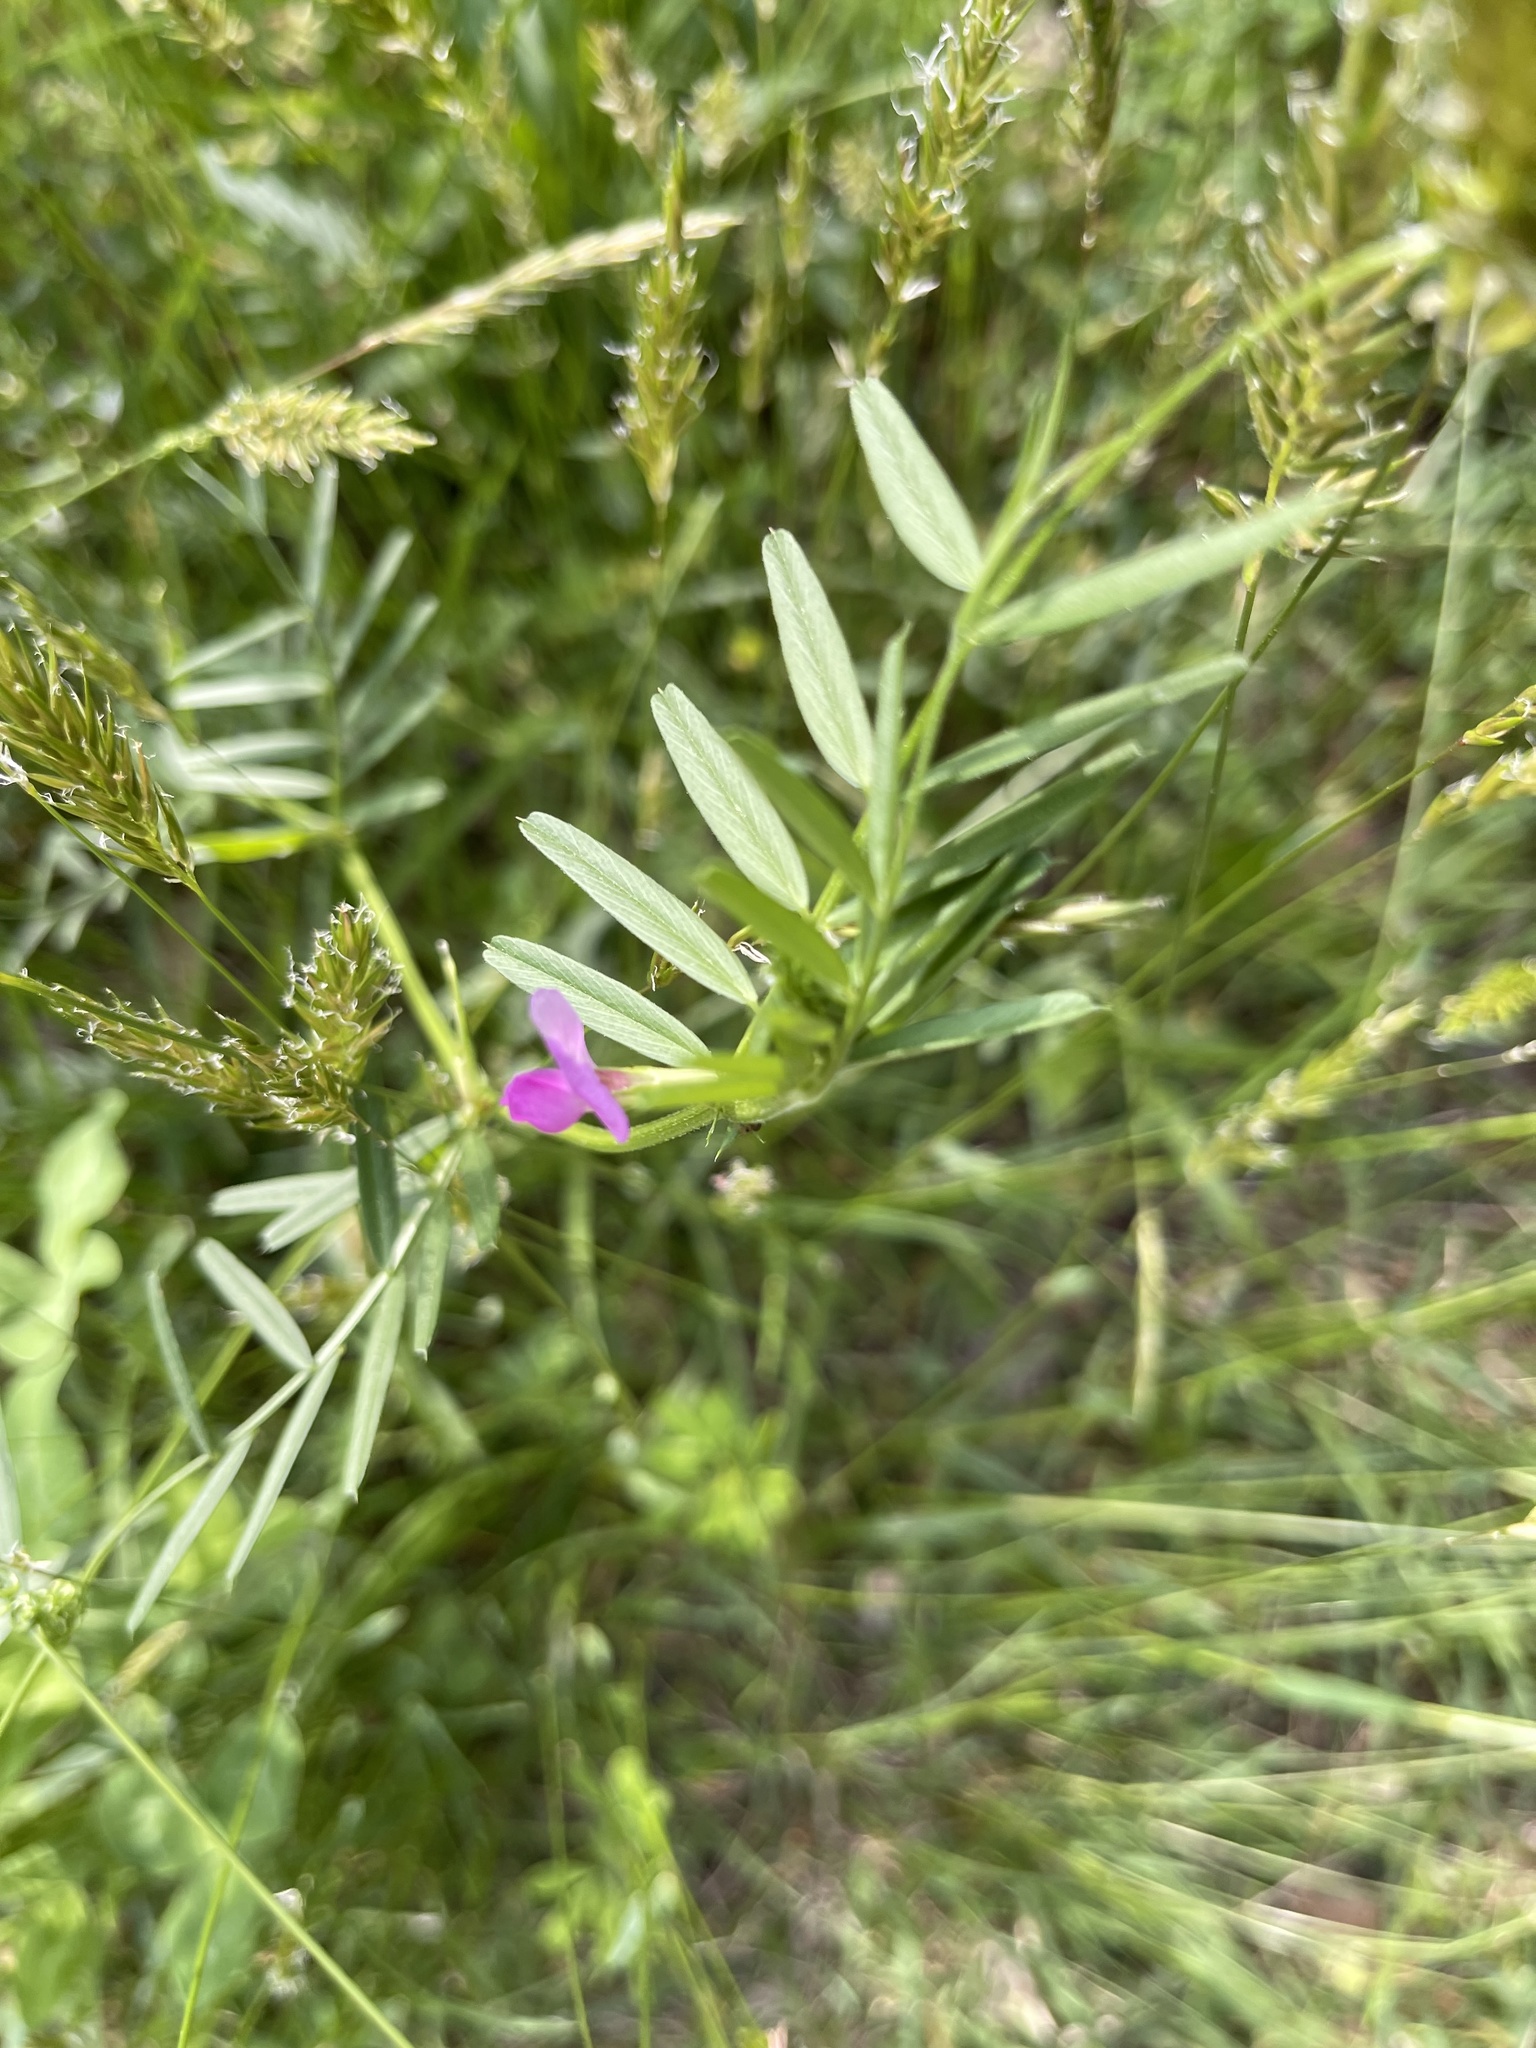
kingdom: Plantae
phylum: Tracheophyta
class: Magnoliopsida
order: Fabales
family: Fabaceae
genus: Vicia
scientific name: Vicia sativa
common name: Garden vetch
